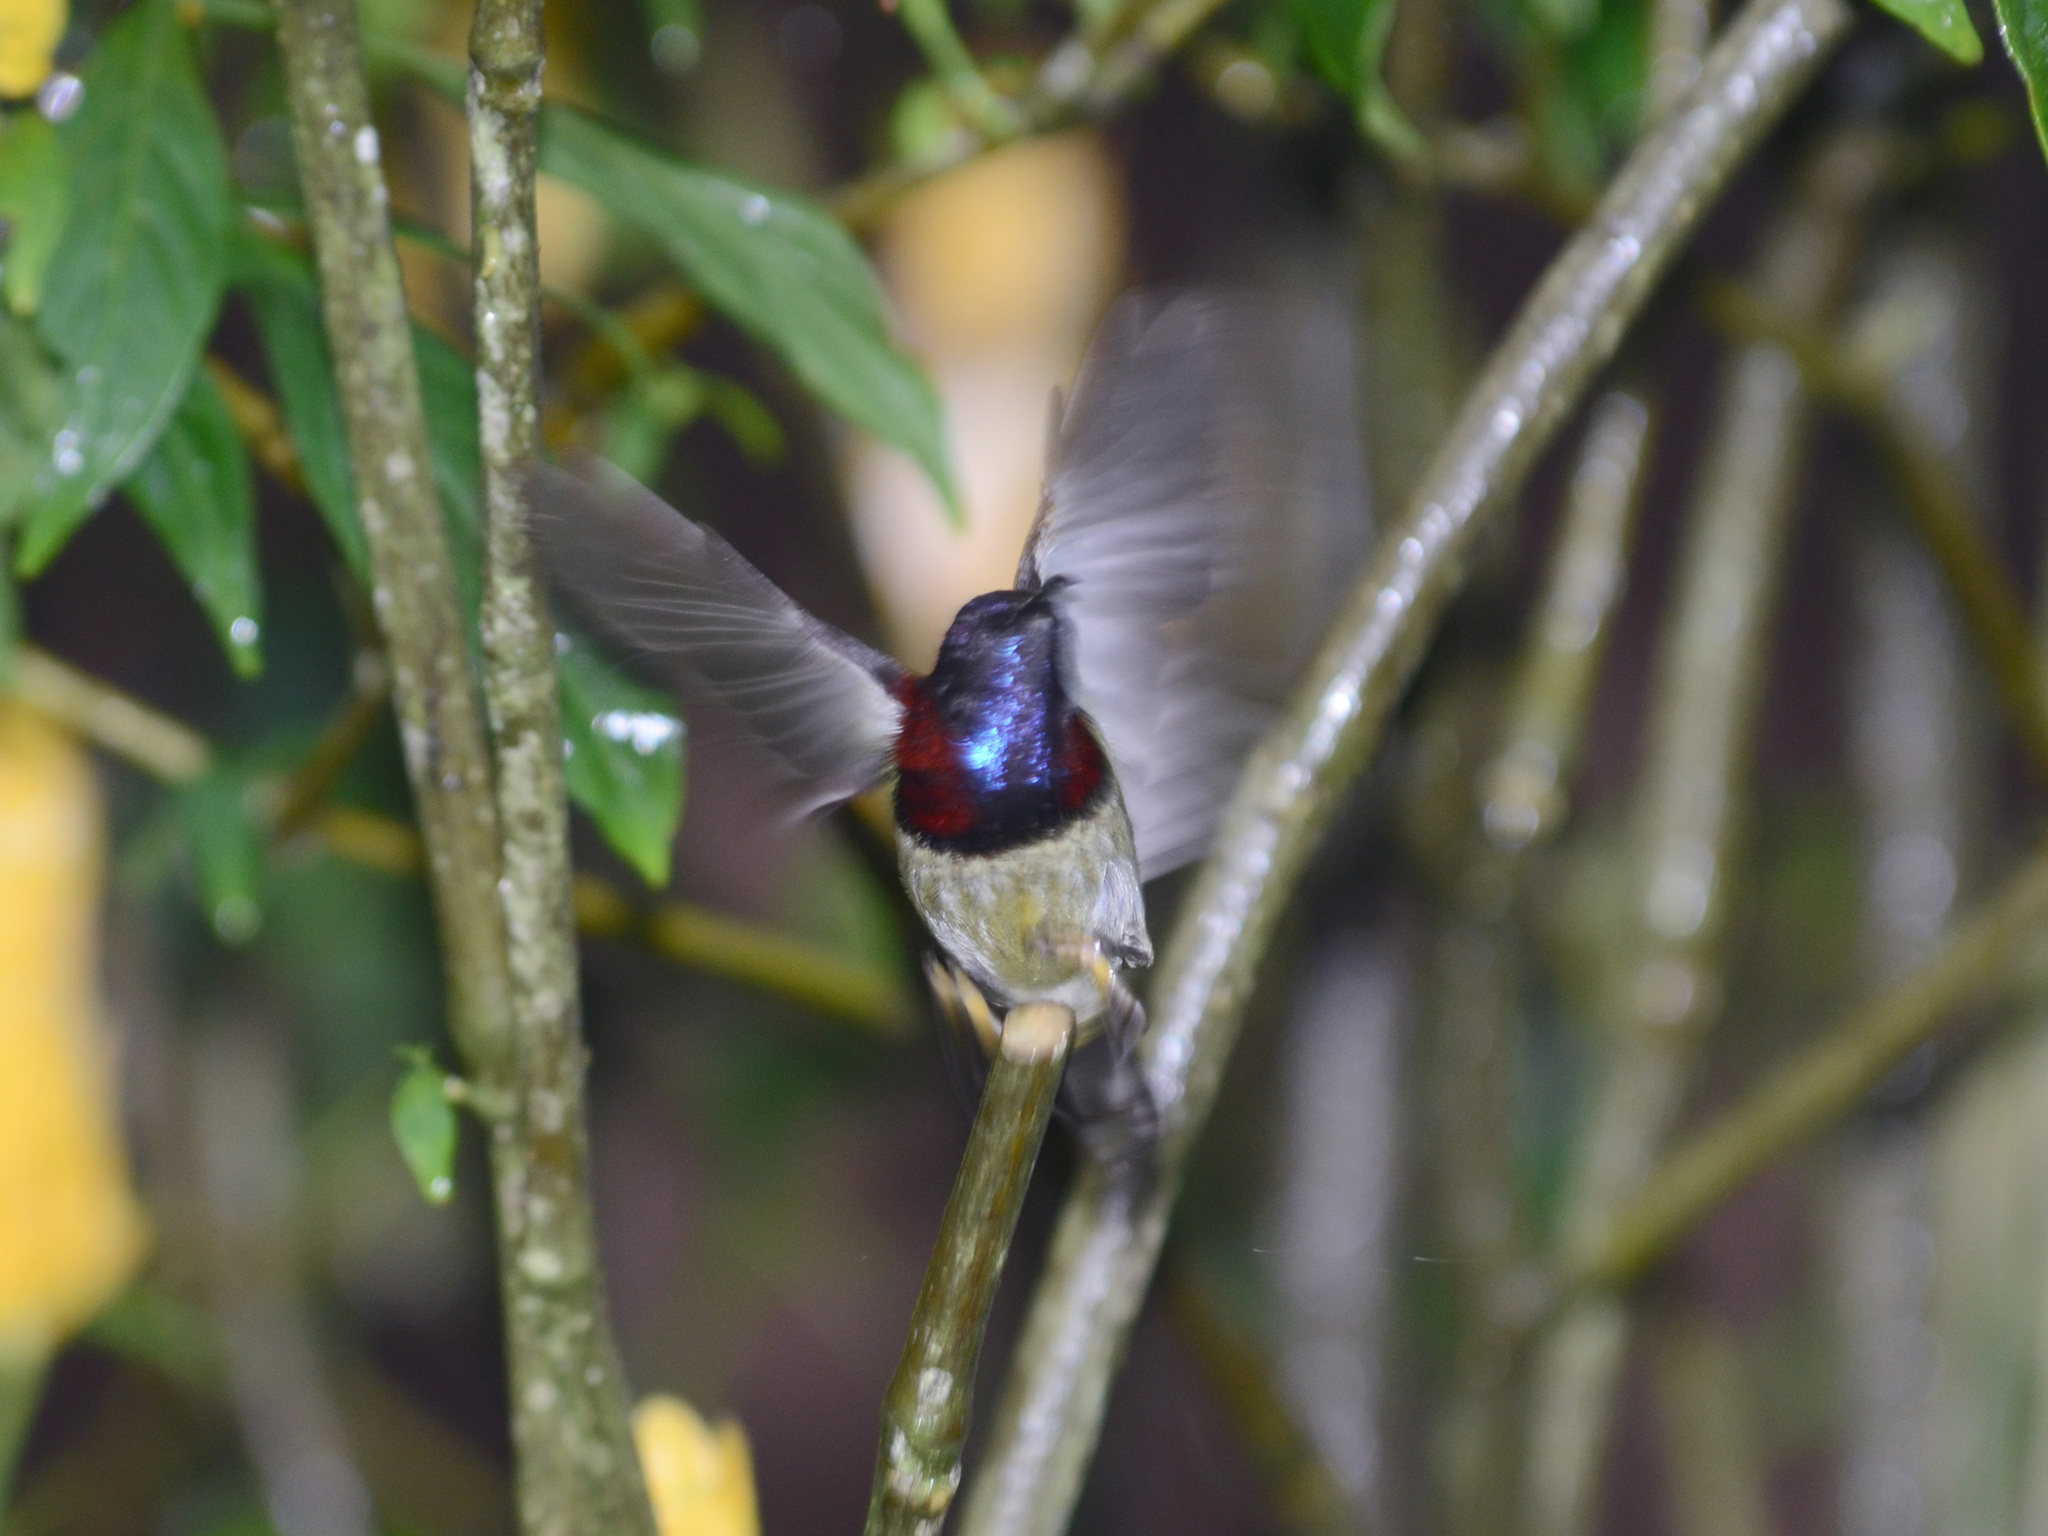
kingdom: Animalia
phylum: Chordata
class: Aves
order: Passeriformes
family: Nectariniidae
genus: Aethopyga
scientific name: Aethopyga saturata
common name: Black-throated sunbird
